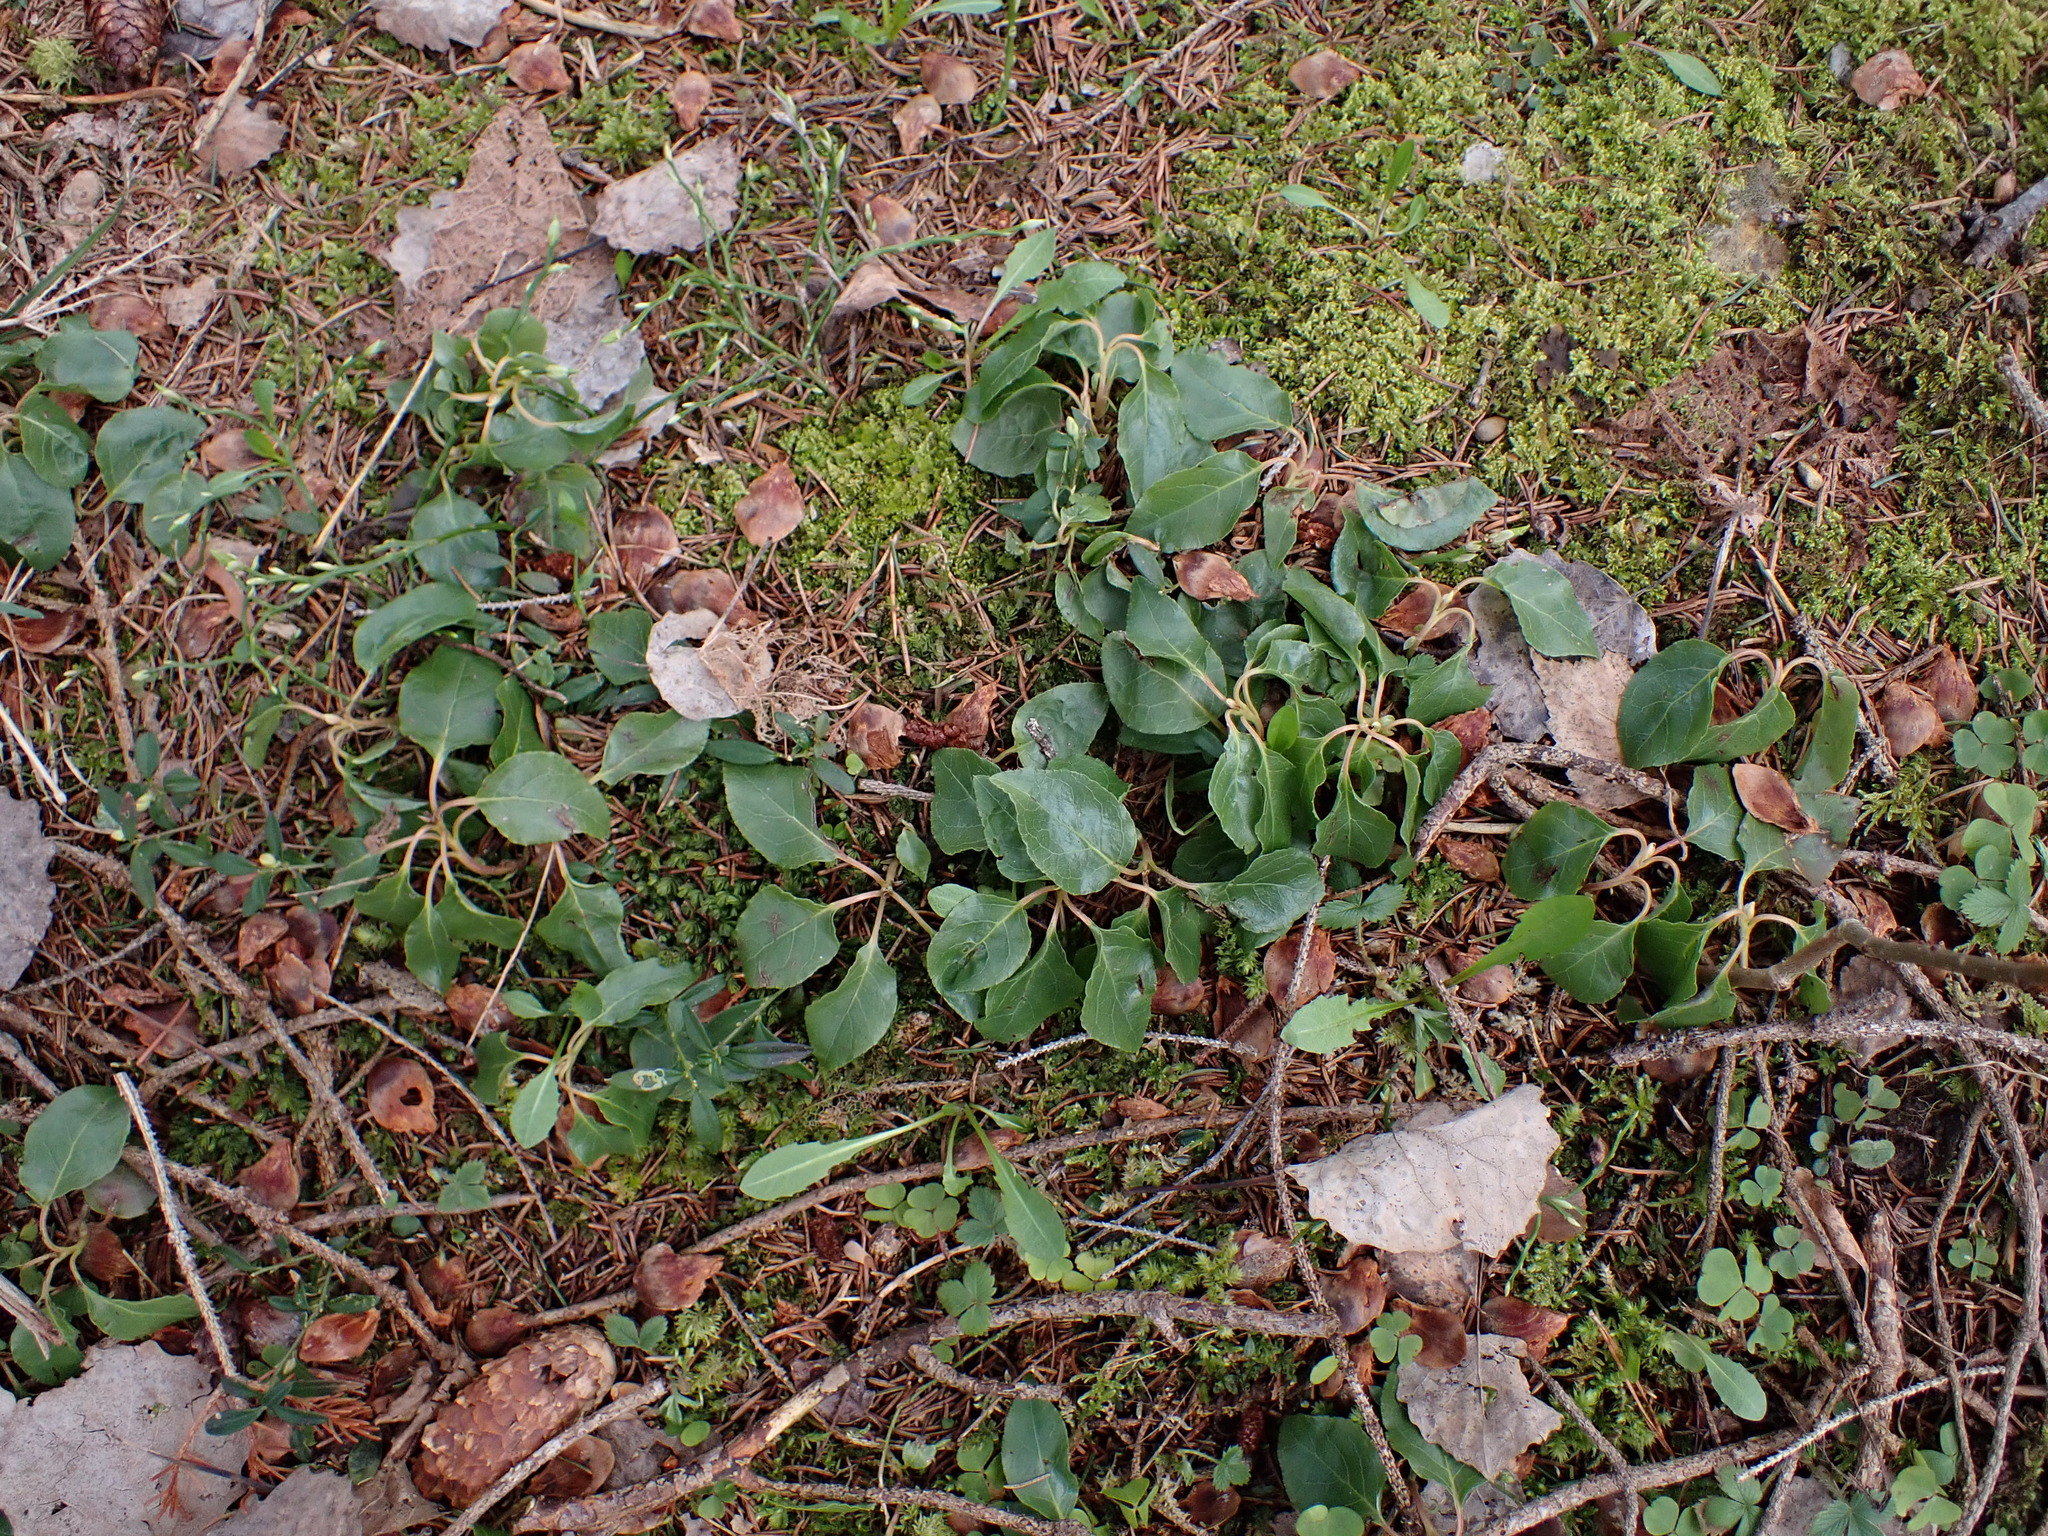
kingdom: Plantae
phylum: Tracheophyta
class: Magnoliopsida
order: Ericales
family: Ericaceae
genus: Orthilia
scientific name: Orthilia secunda
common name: One-sided orthilia
